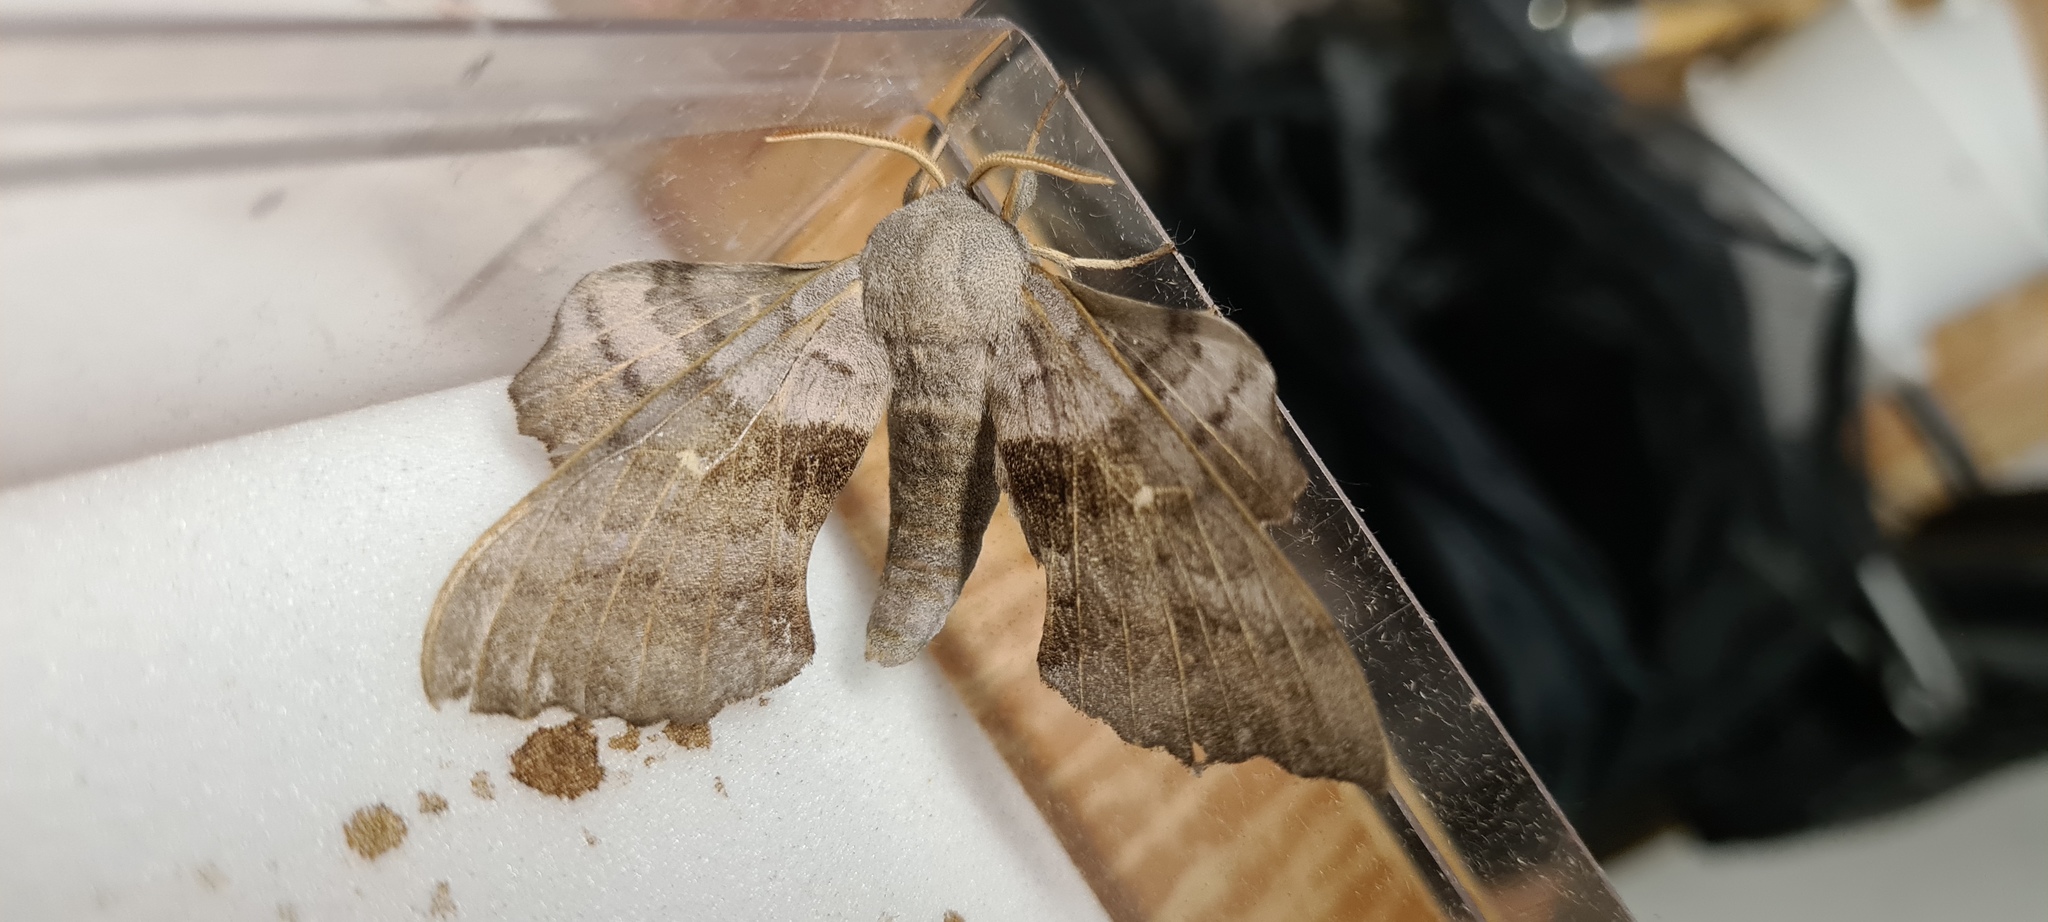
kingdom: Animalia
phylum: Arthropoda
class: Insecta
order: Lepidoptera
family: Sphingidae
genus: Laothoe
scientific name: Laothoe populi
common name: Poplar hawk-moth
